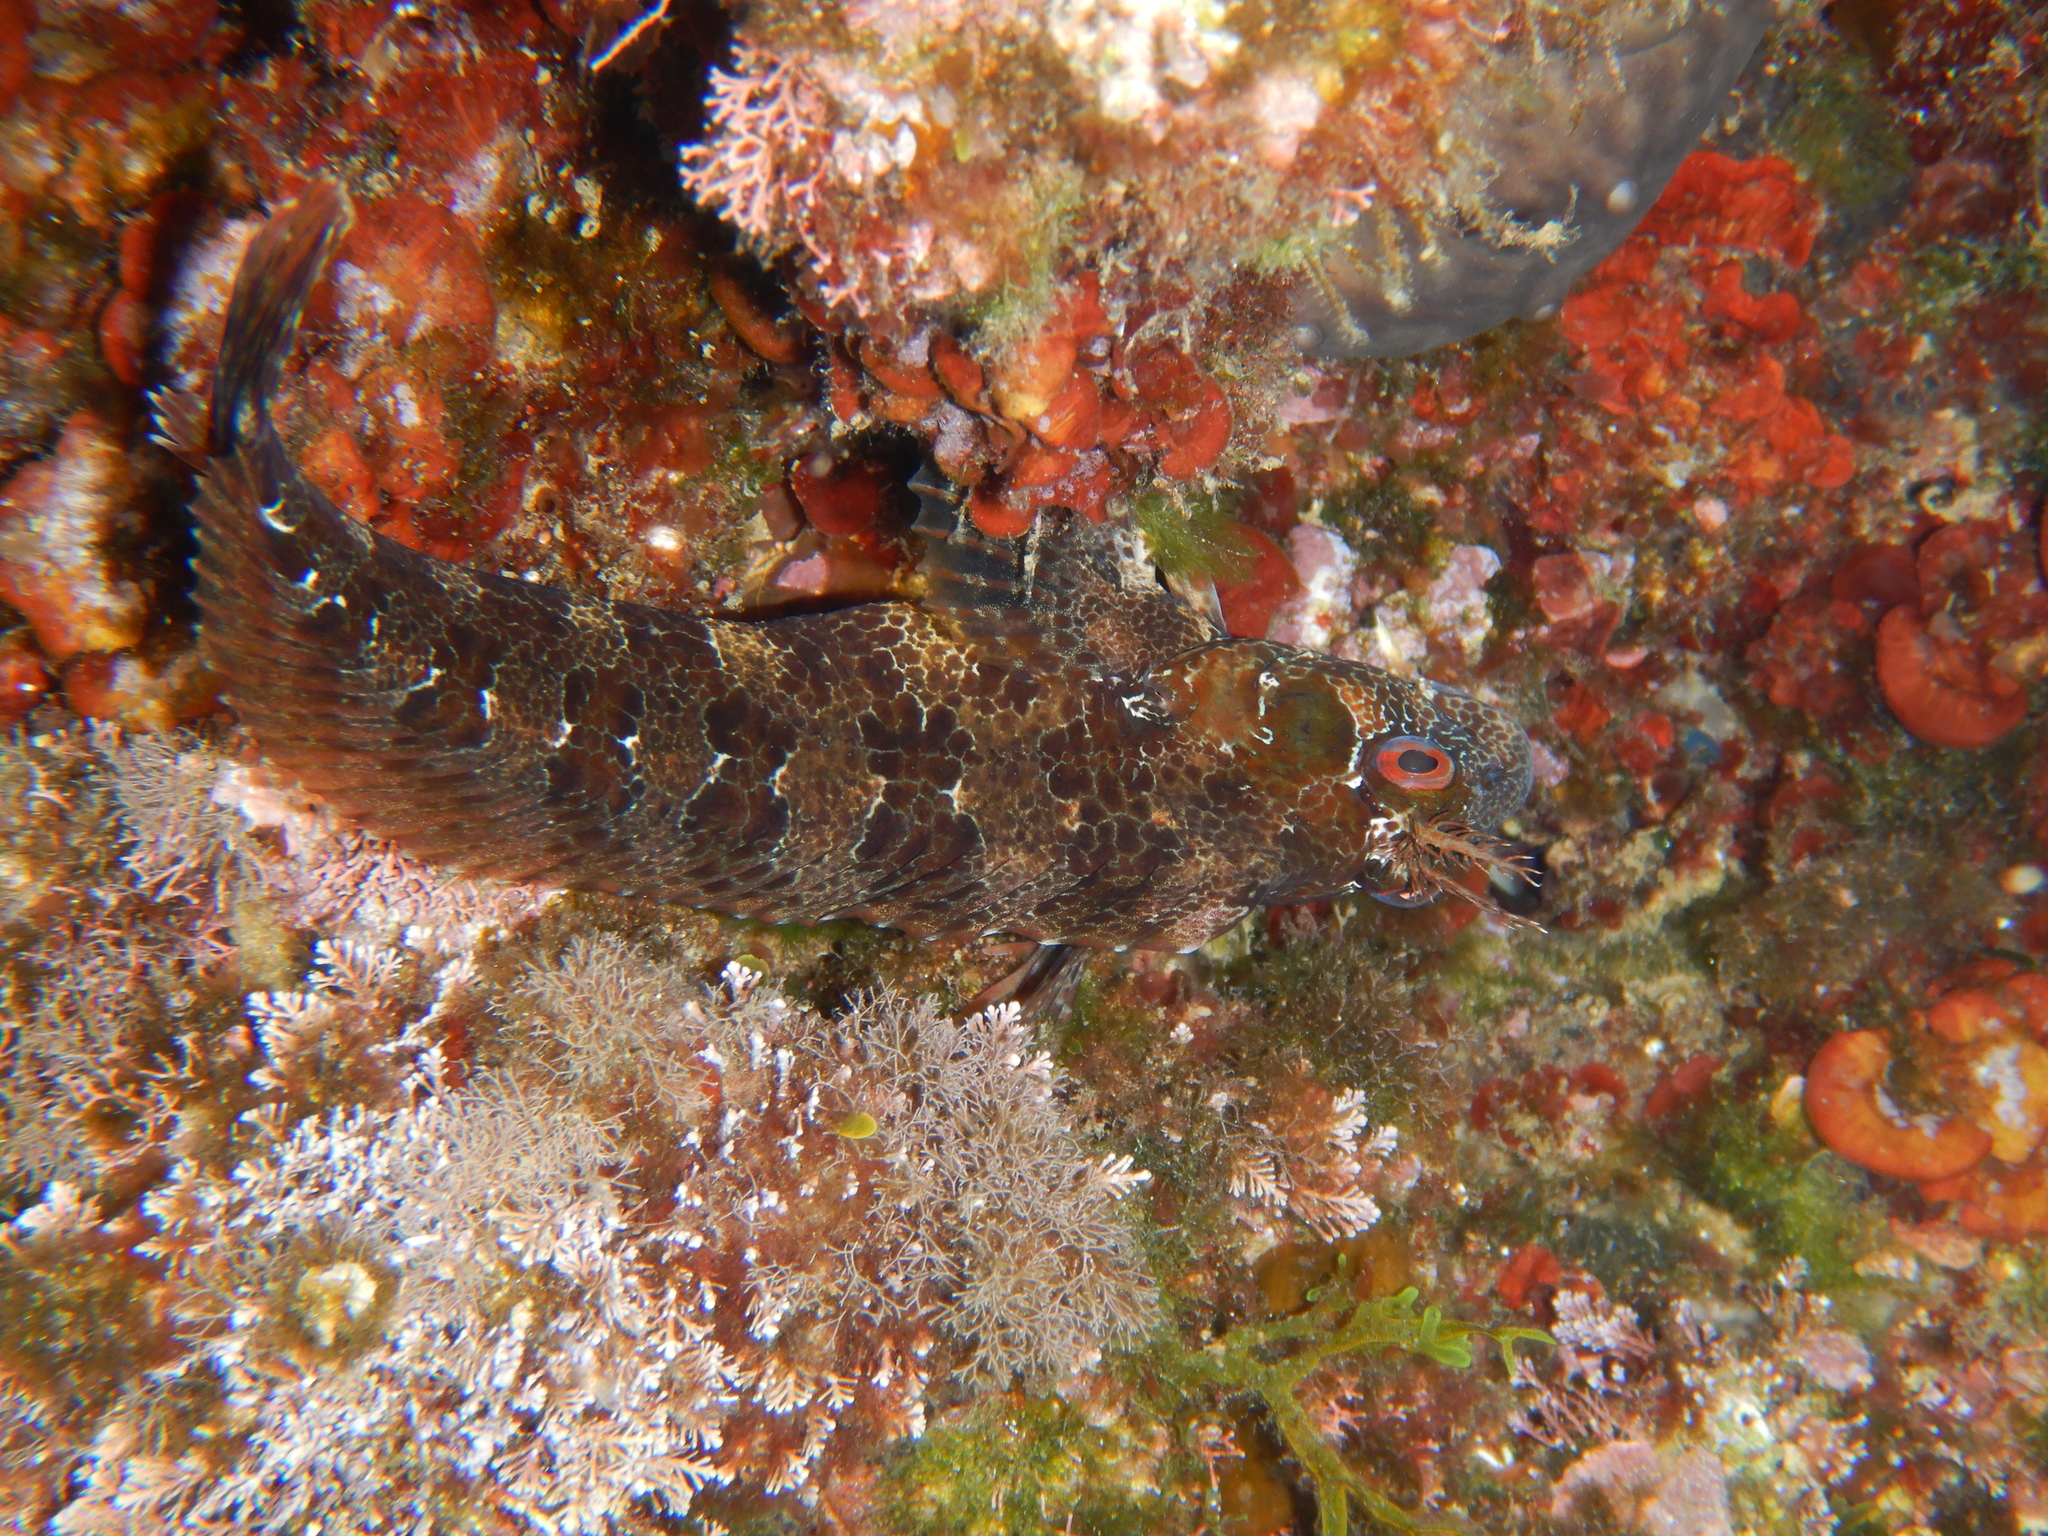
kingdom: Animalia
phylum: Chordata
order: Perciformes
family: Blenniidae
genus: Parablennius
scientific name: Parablennius gattorugine
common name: Tompot blenny
